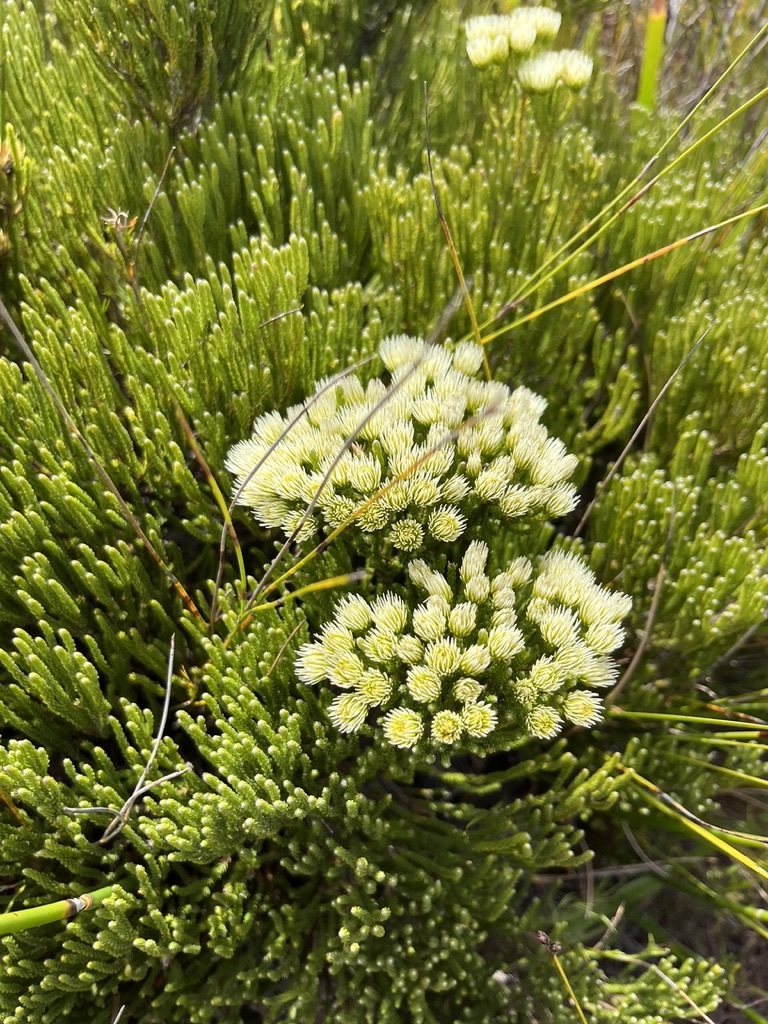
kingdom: Plantae
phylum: Tracheophyta
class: Magnoliopsida
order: Bruniales
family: Bruniaceae
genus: Brunia
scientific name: Brunia paleacea
